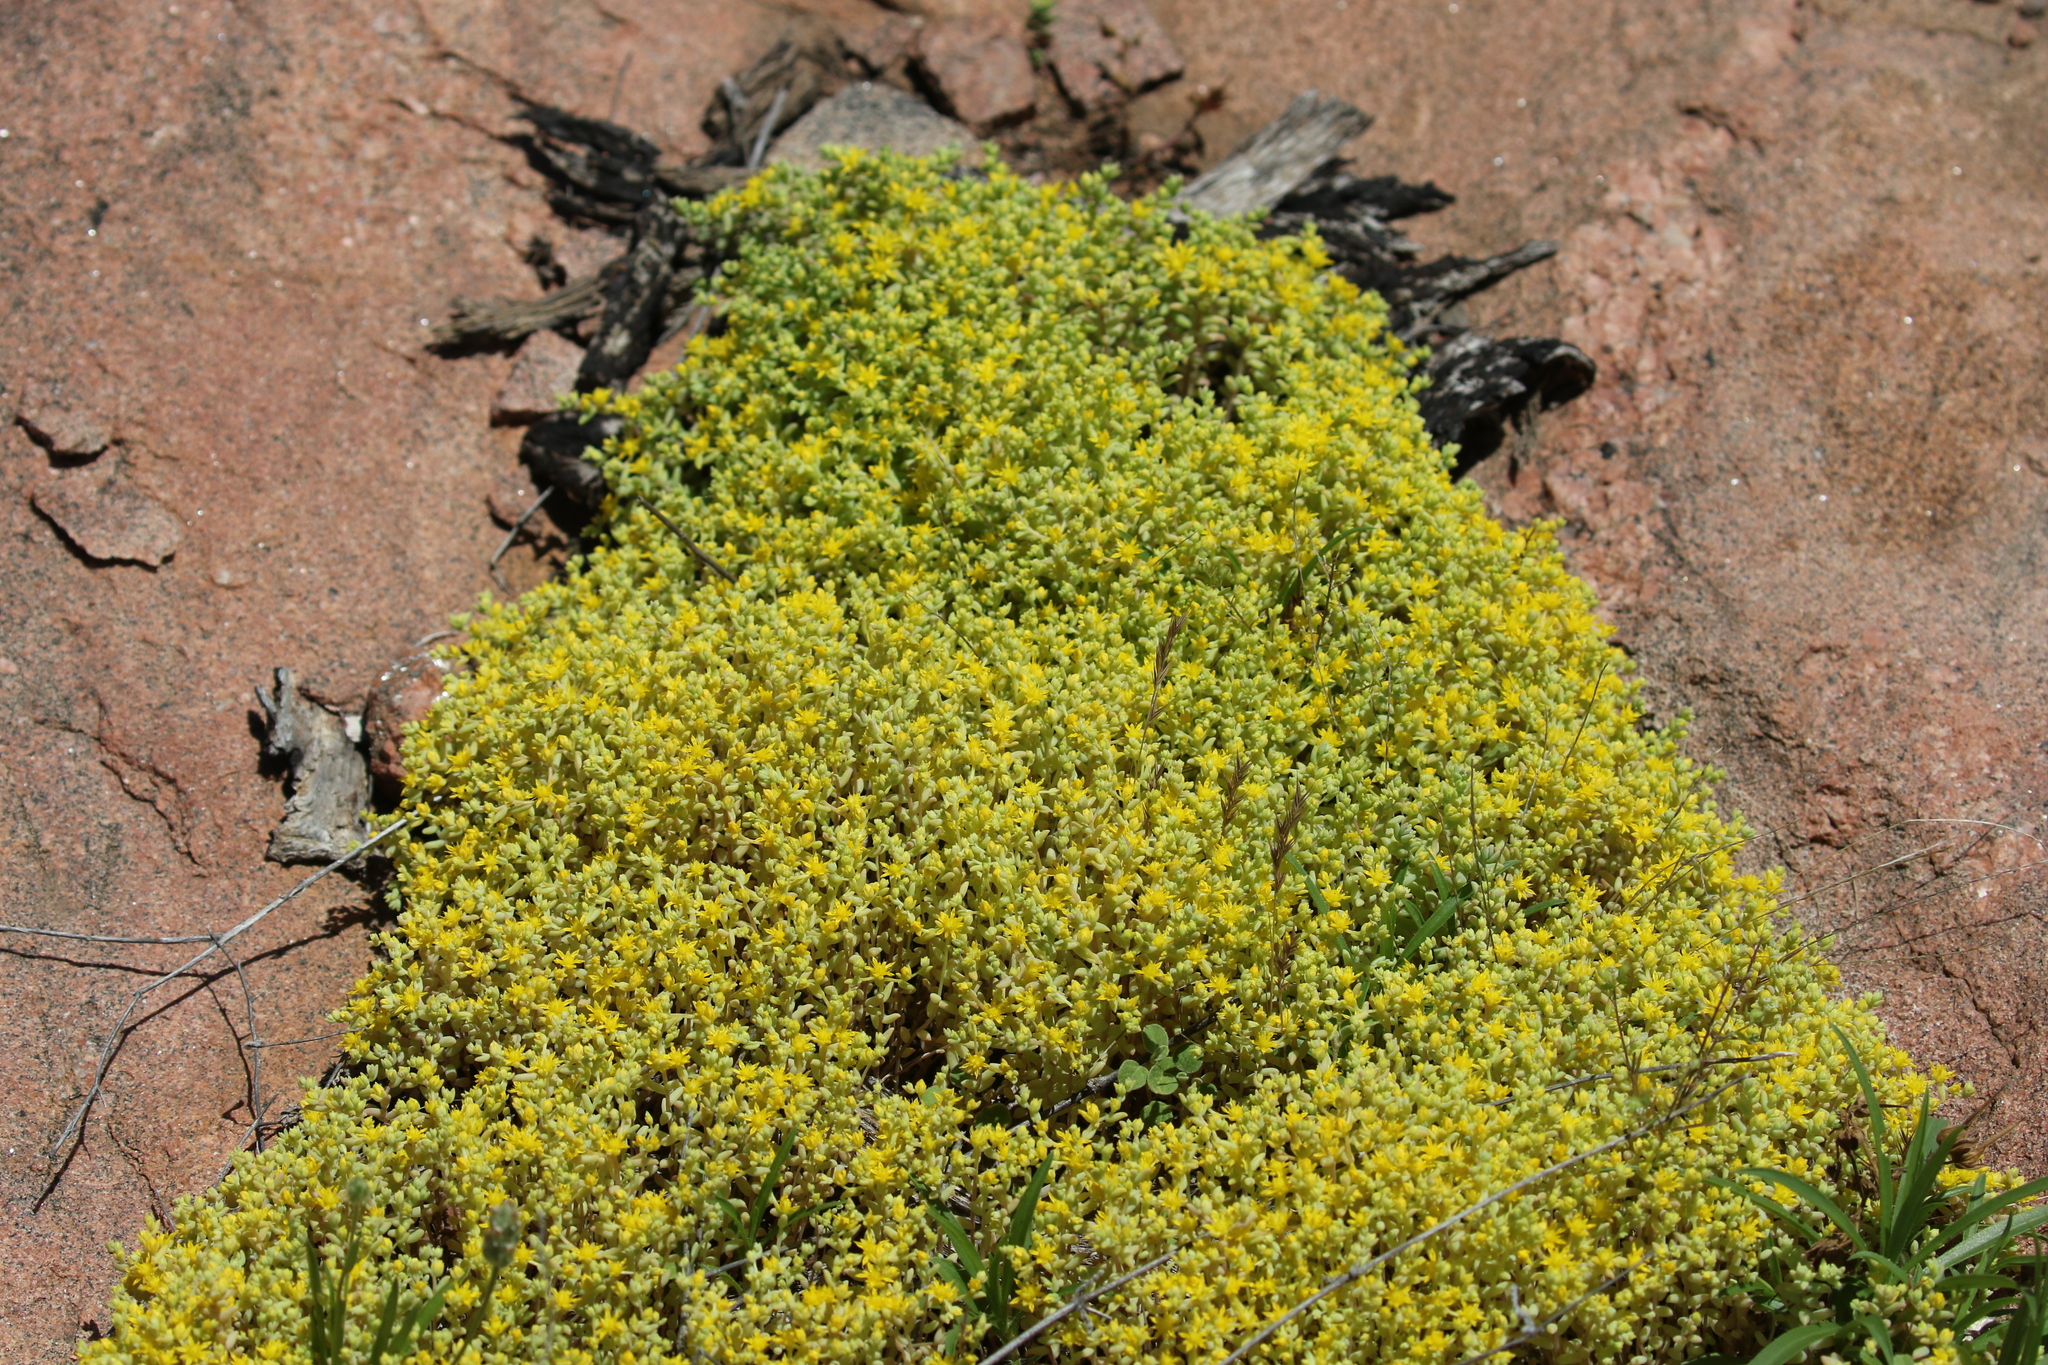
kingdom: Plantae
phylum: Tracheophyta
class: Magnoliopsida
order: Saxifragales
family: Crassulaceae
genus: Sedum
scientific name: Sedum nuttallii
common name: Yellow stonecrop
